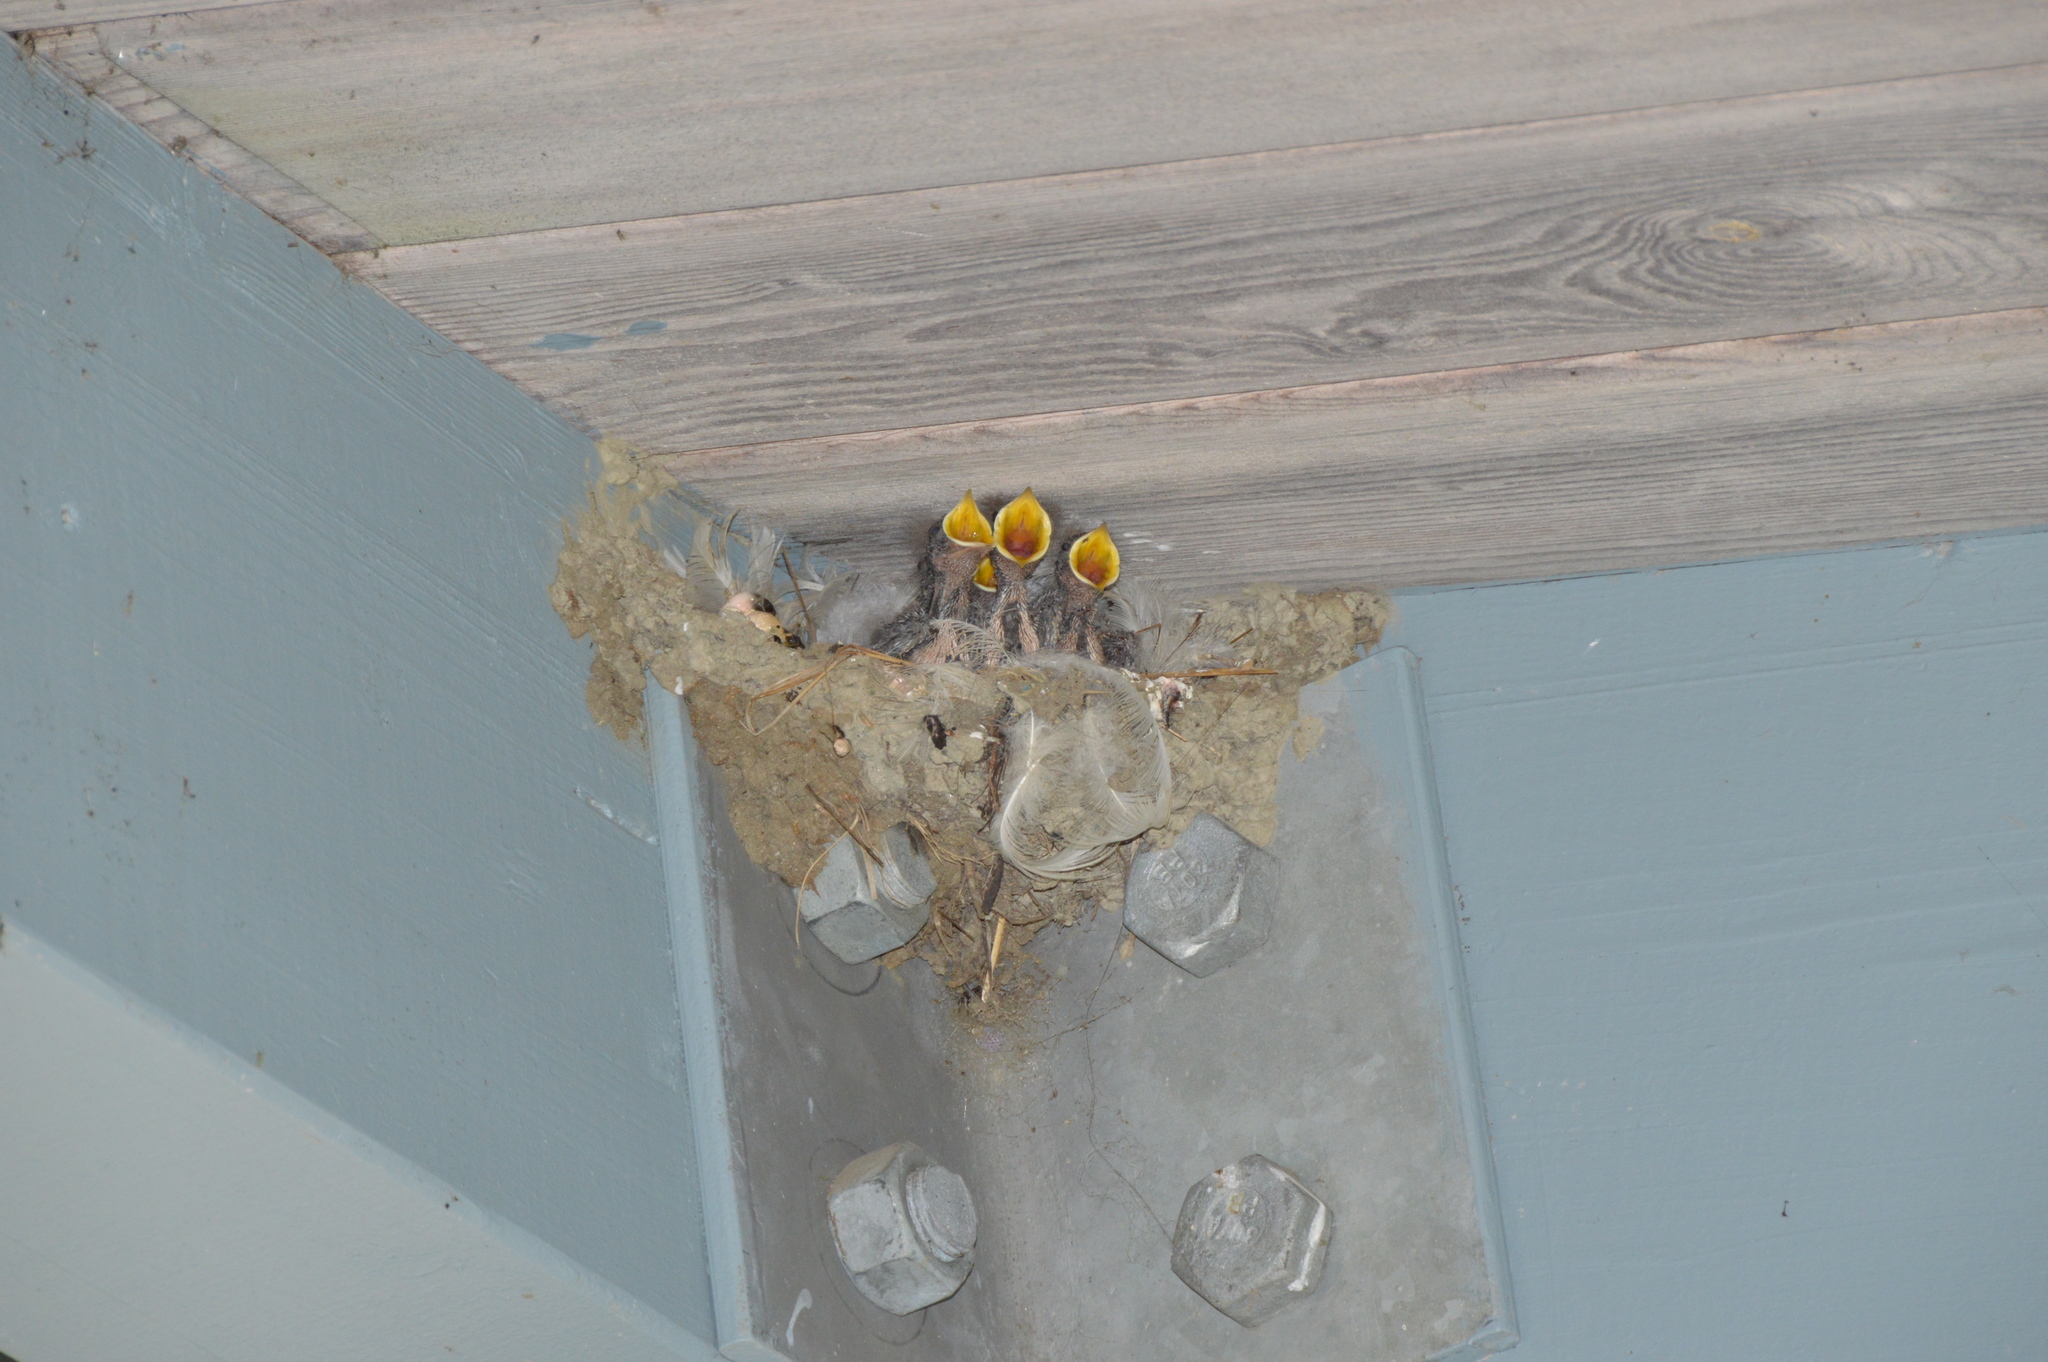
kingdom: Animalia
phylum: Chordata
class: Aves
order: Passeriformes
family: Hirundinidae
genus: Hirundo
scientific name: Hirundo rustica
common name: Barn swallow
